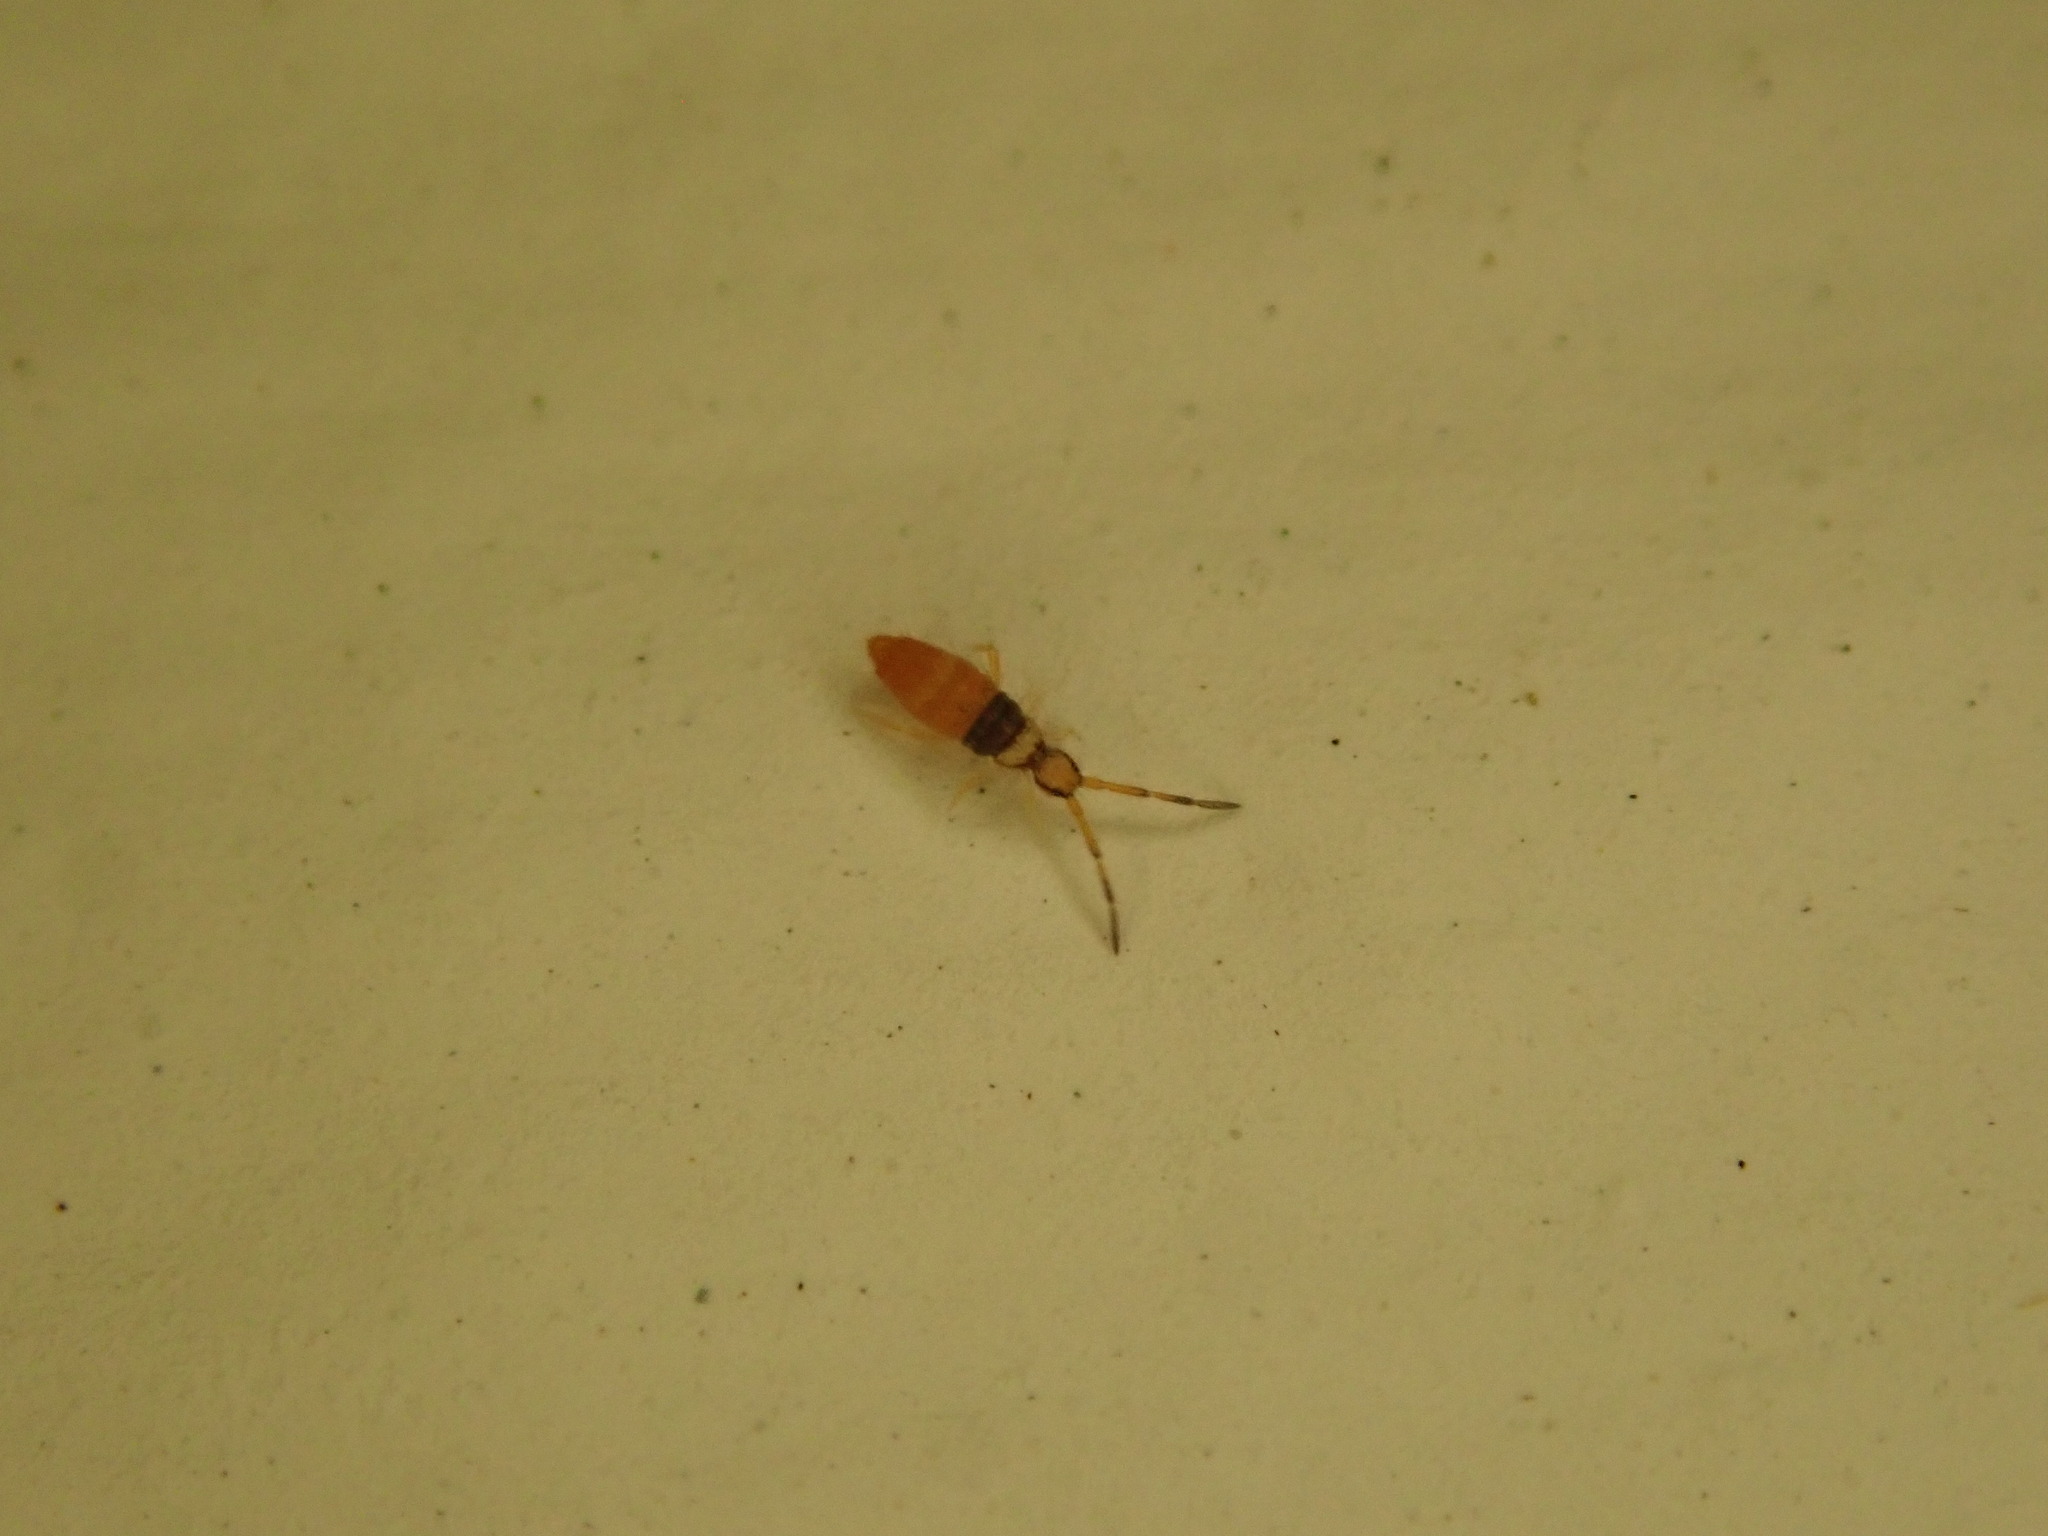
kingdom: Animalia
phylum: Arthropoda
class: Collembola
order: Entomobryomorpha
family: Entomobryidae
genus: Entomobrya
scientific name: Entomobrya atrocincta
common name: Springtail
